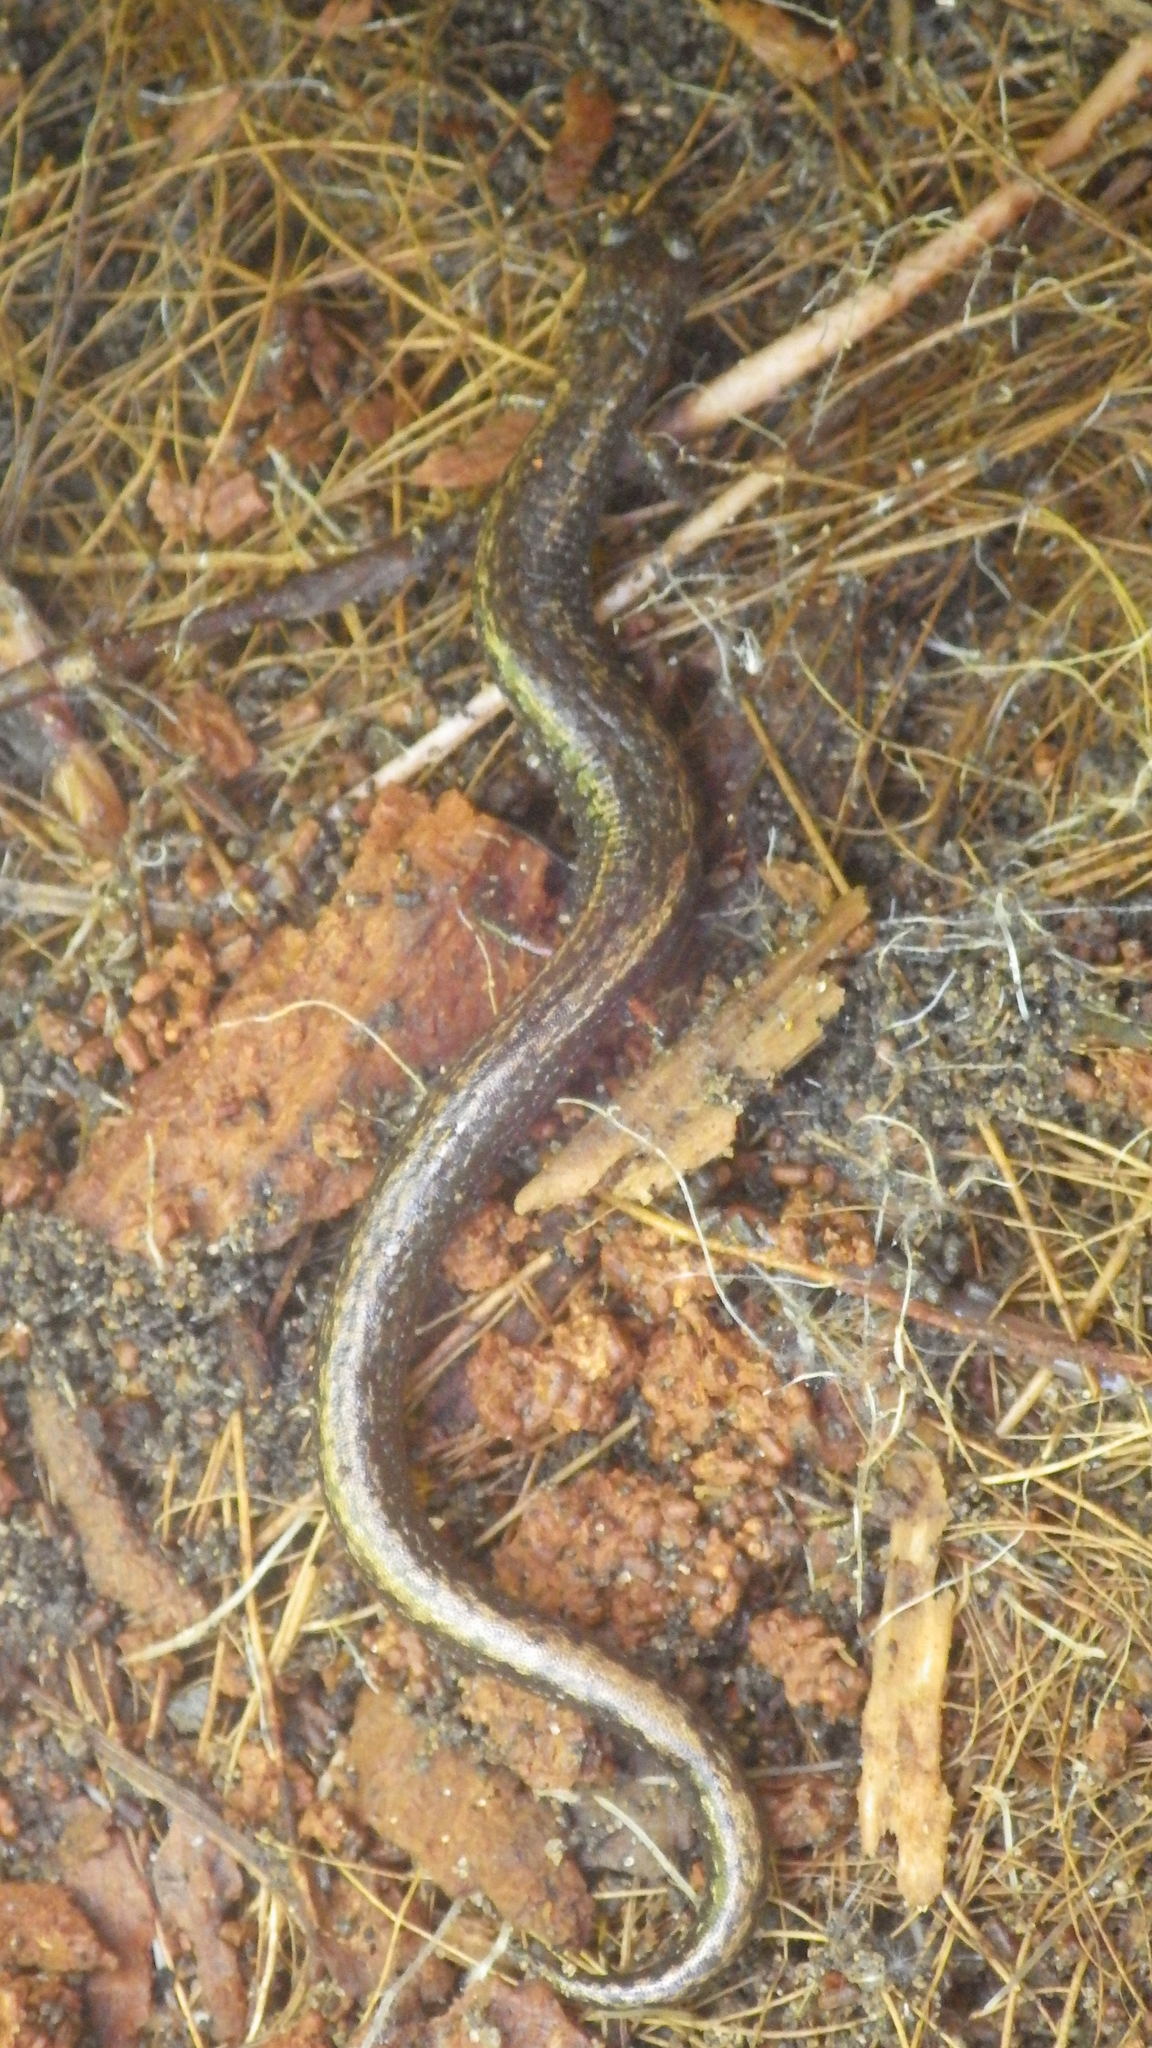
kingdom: Animalia
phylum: Chordata
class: Amphibia
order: Caudata
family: Plethodontidae
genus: Batrachoseps
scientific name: Batrachoseps attenuatus
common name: California slender salamander
